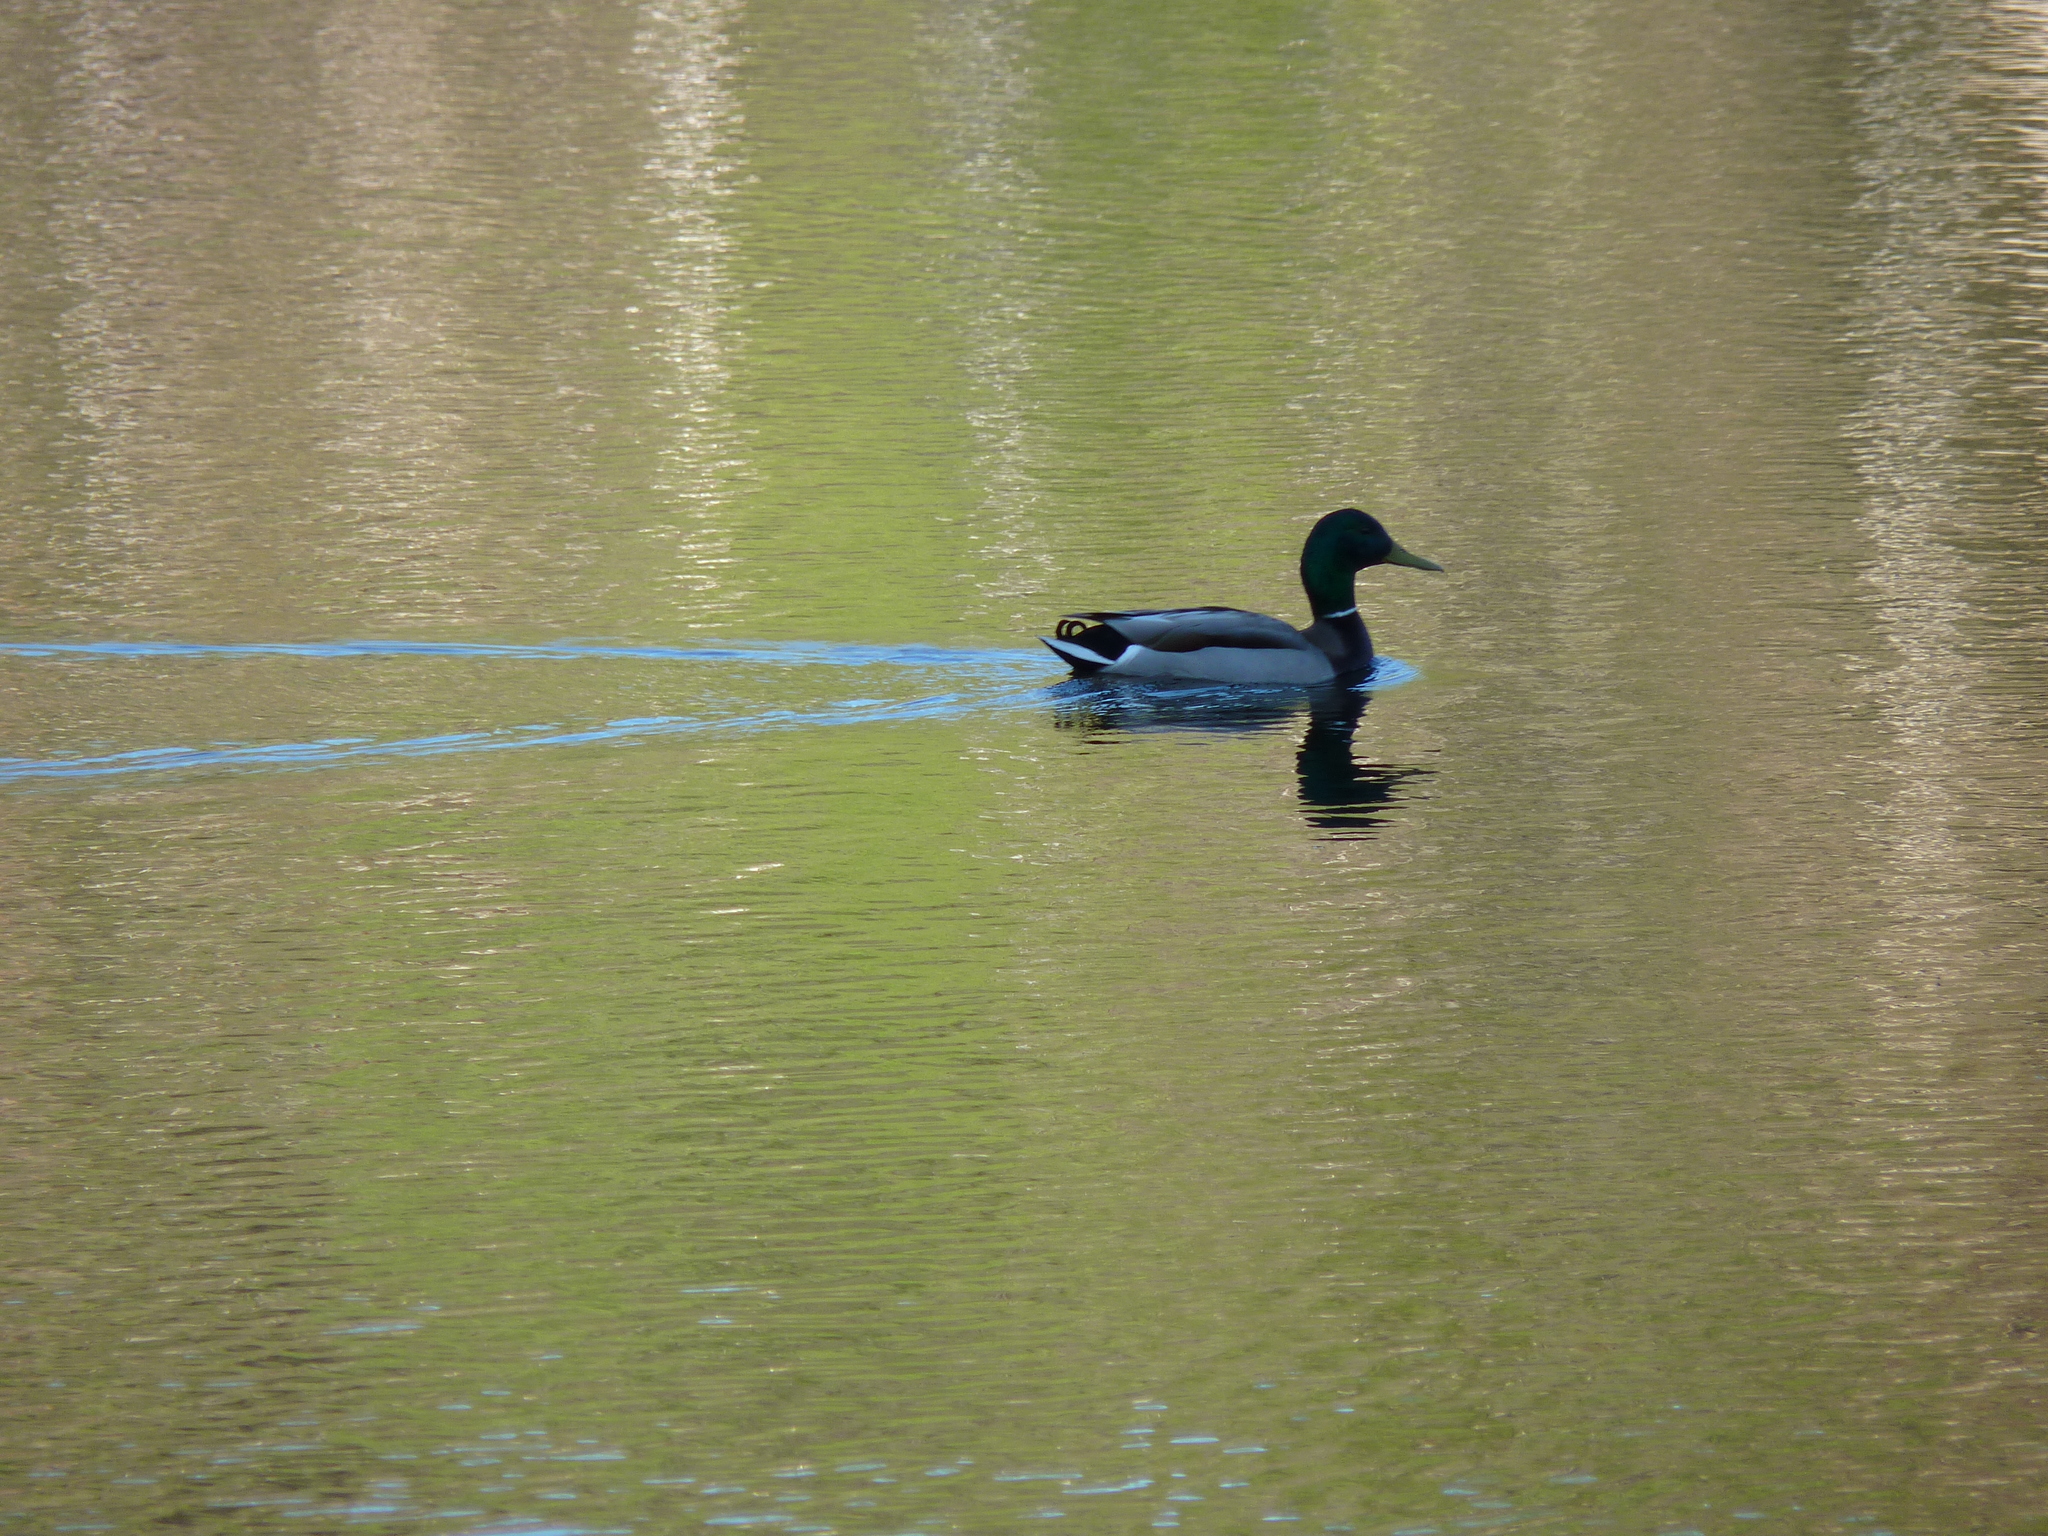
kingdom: Animalia
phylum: Chordata
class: Aves
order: Anseriformes
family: Anatidae
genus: Anas
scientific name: Anas platyrhynchos
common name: Mallard
